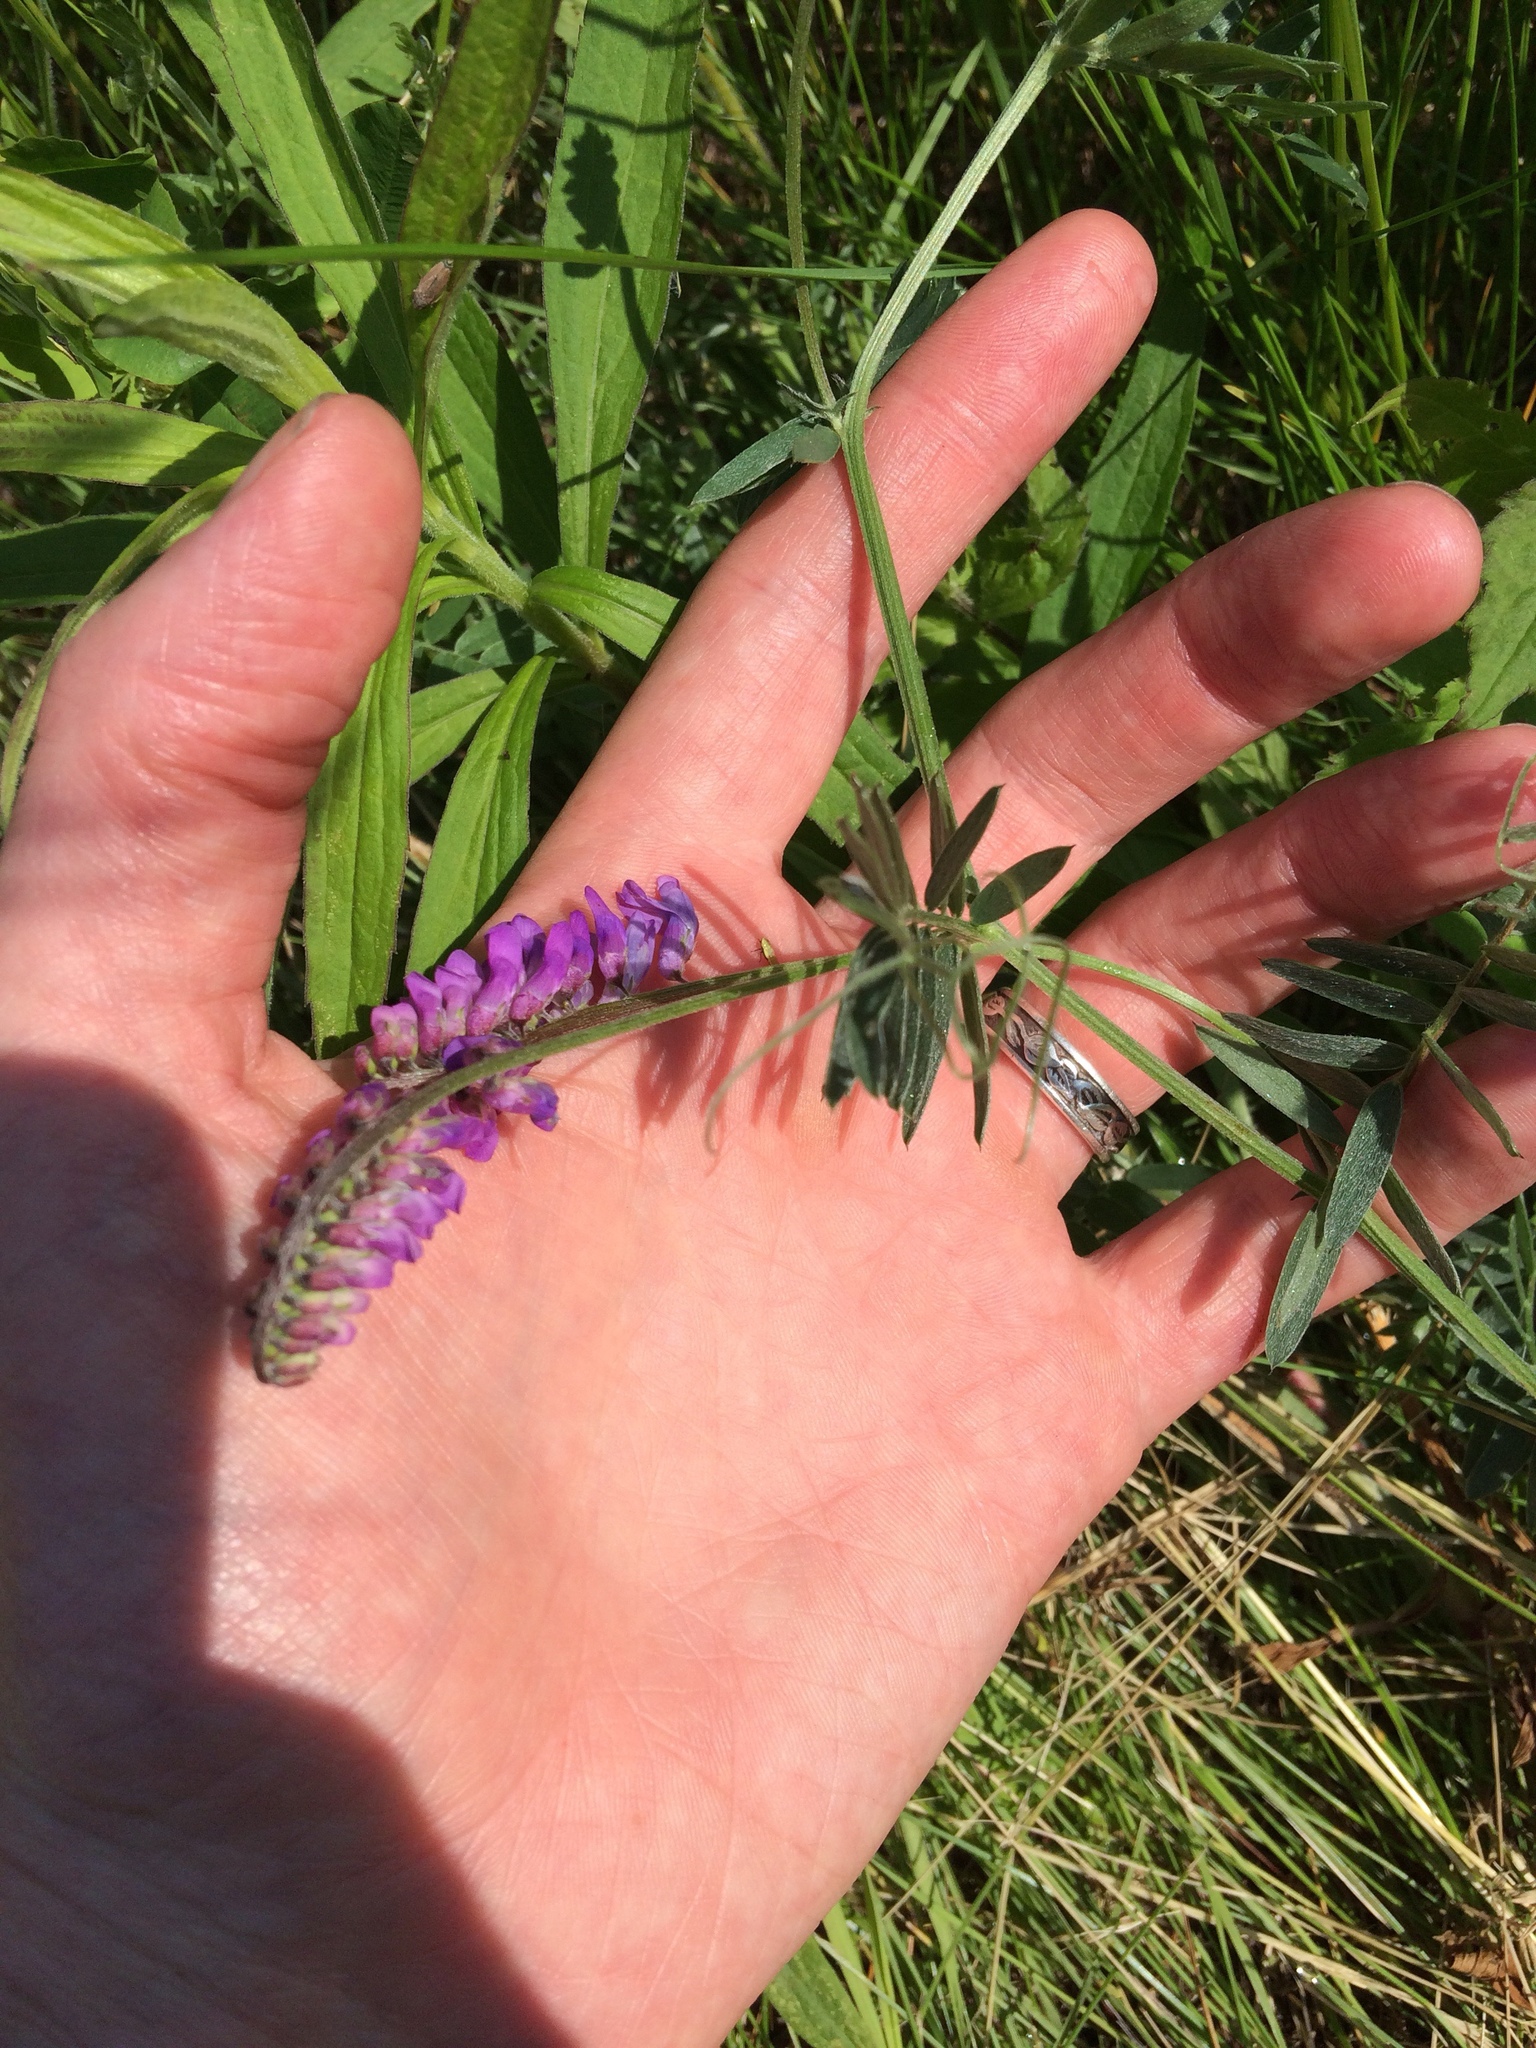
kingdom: Plantae
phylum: Tracheophyta
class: Magnoliopsida
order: Fabales
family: Fabaceae
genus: Vicia
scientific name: Vicia cracca
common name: Bird vetch
